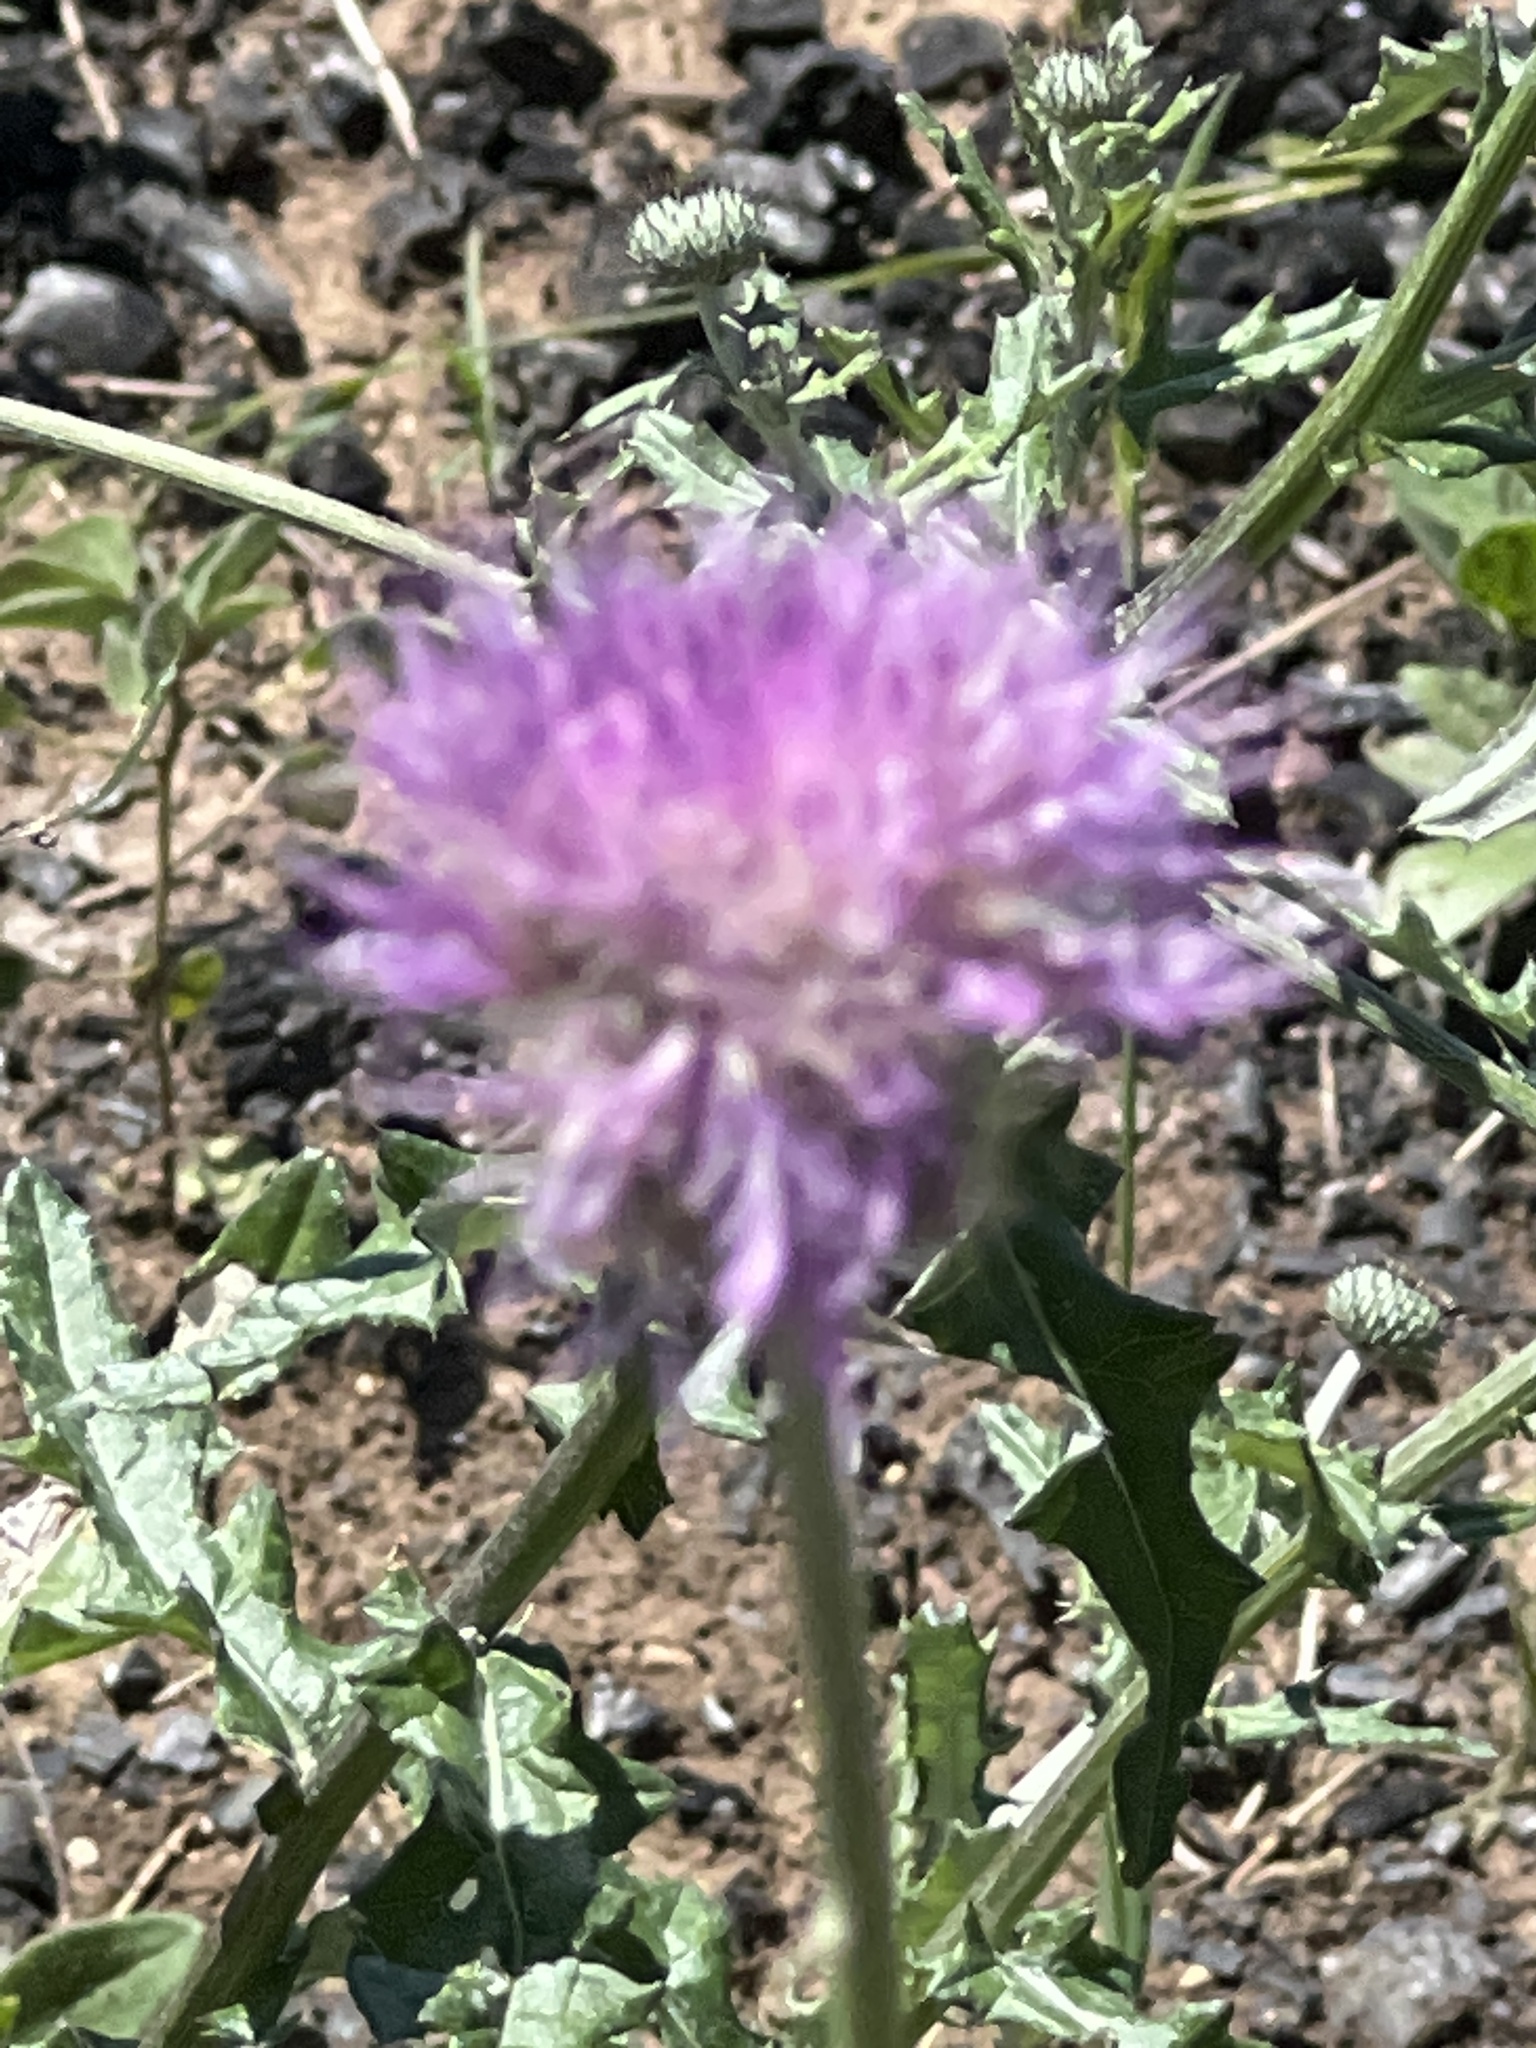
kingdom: Plantae
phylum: Tracheophyta
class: Magnoliopsida
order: Asterales
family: Asteraceae
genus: Cirsium
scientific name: Cirsium texanum
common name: Texas purple thistle
